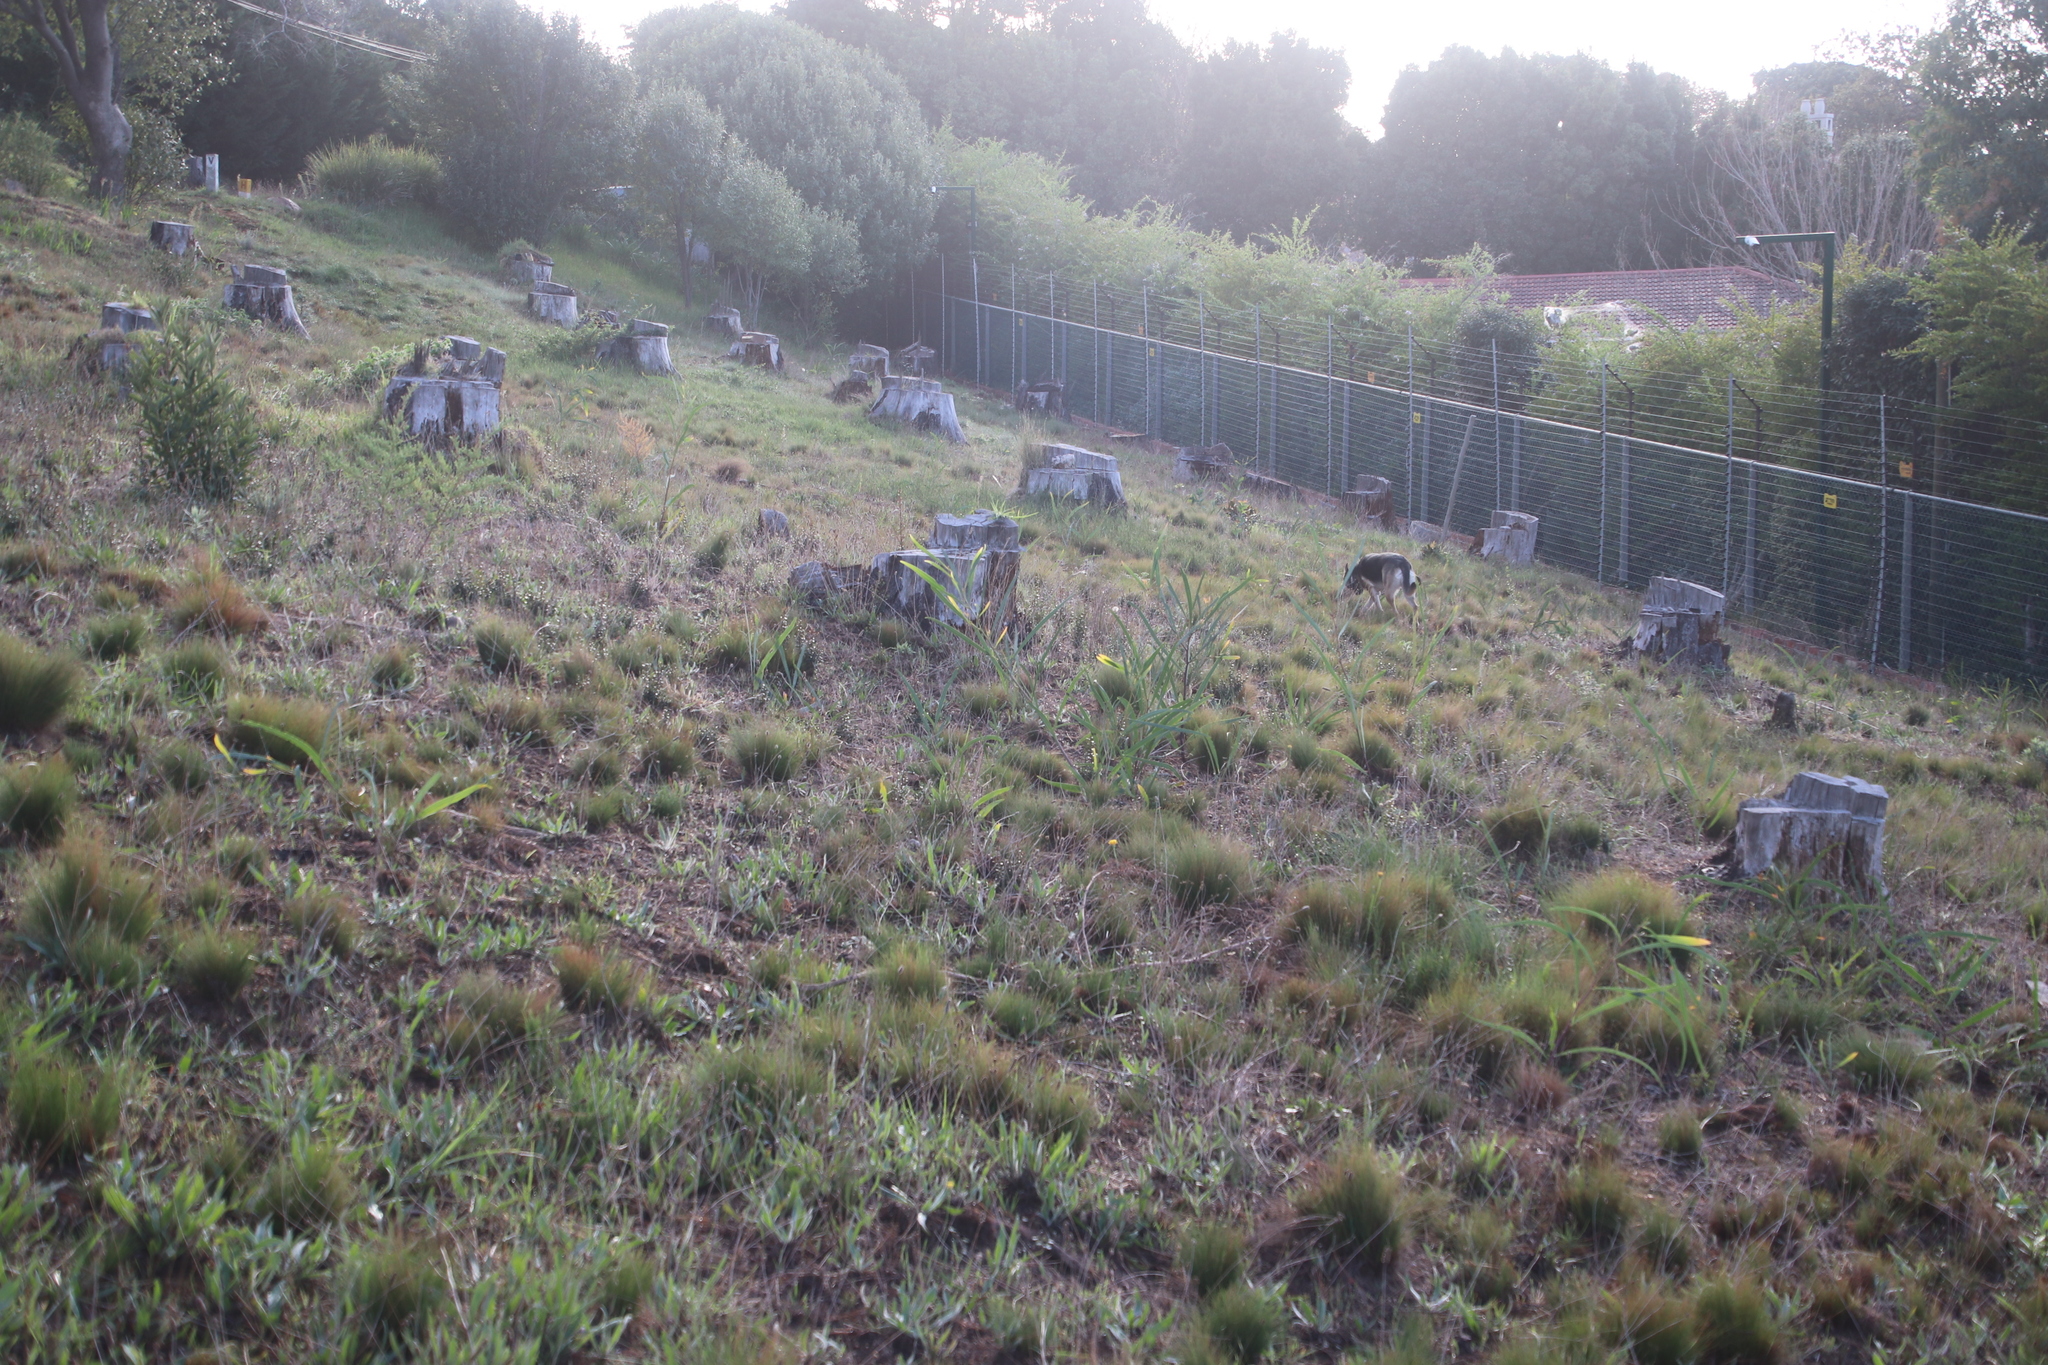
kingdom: Plantae
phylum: Tracheophyta
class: Magnoliopsida
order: Fabales
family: Fabaceae
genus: Acacia
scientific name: Acacia saligna
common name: Orange wattle
